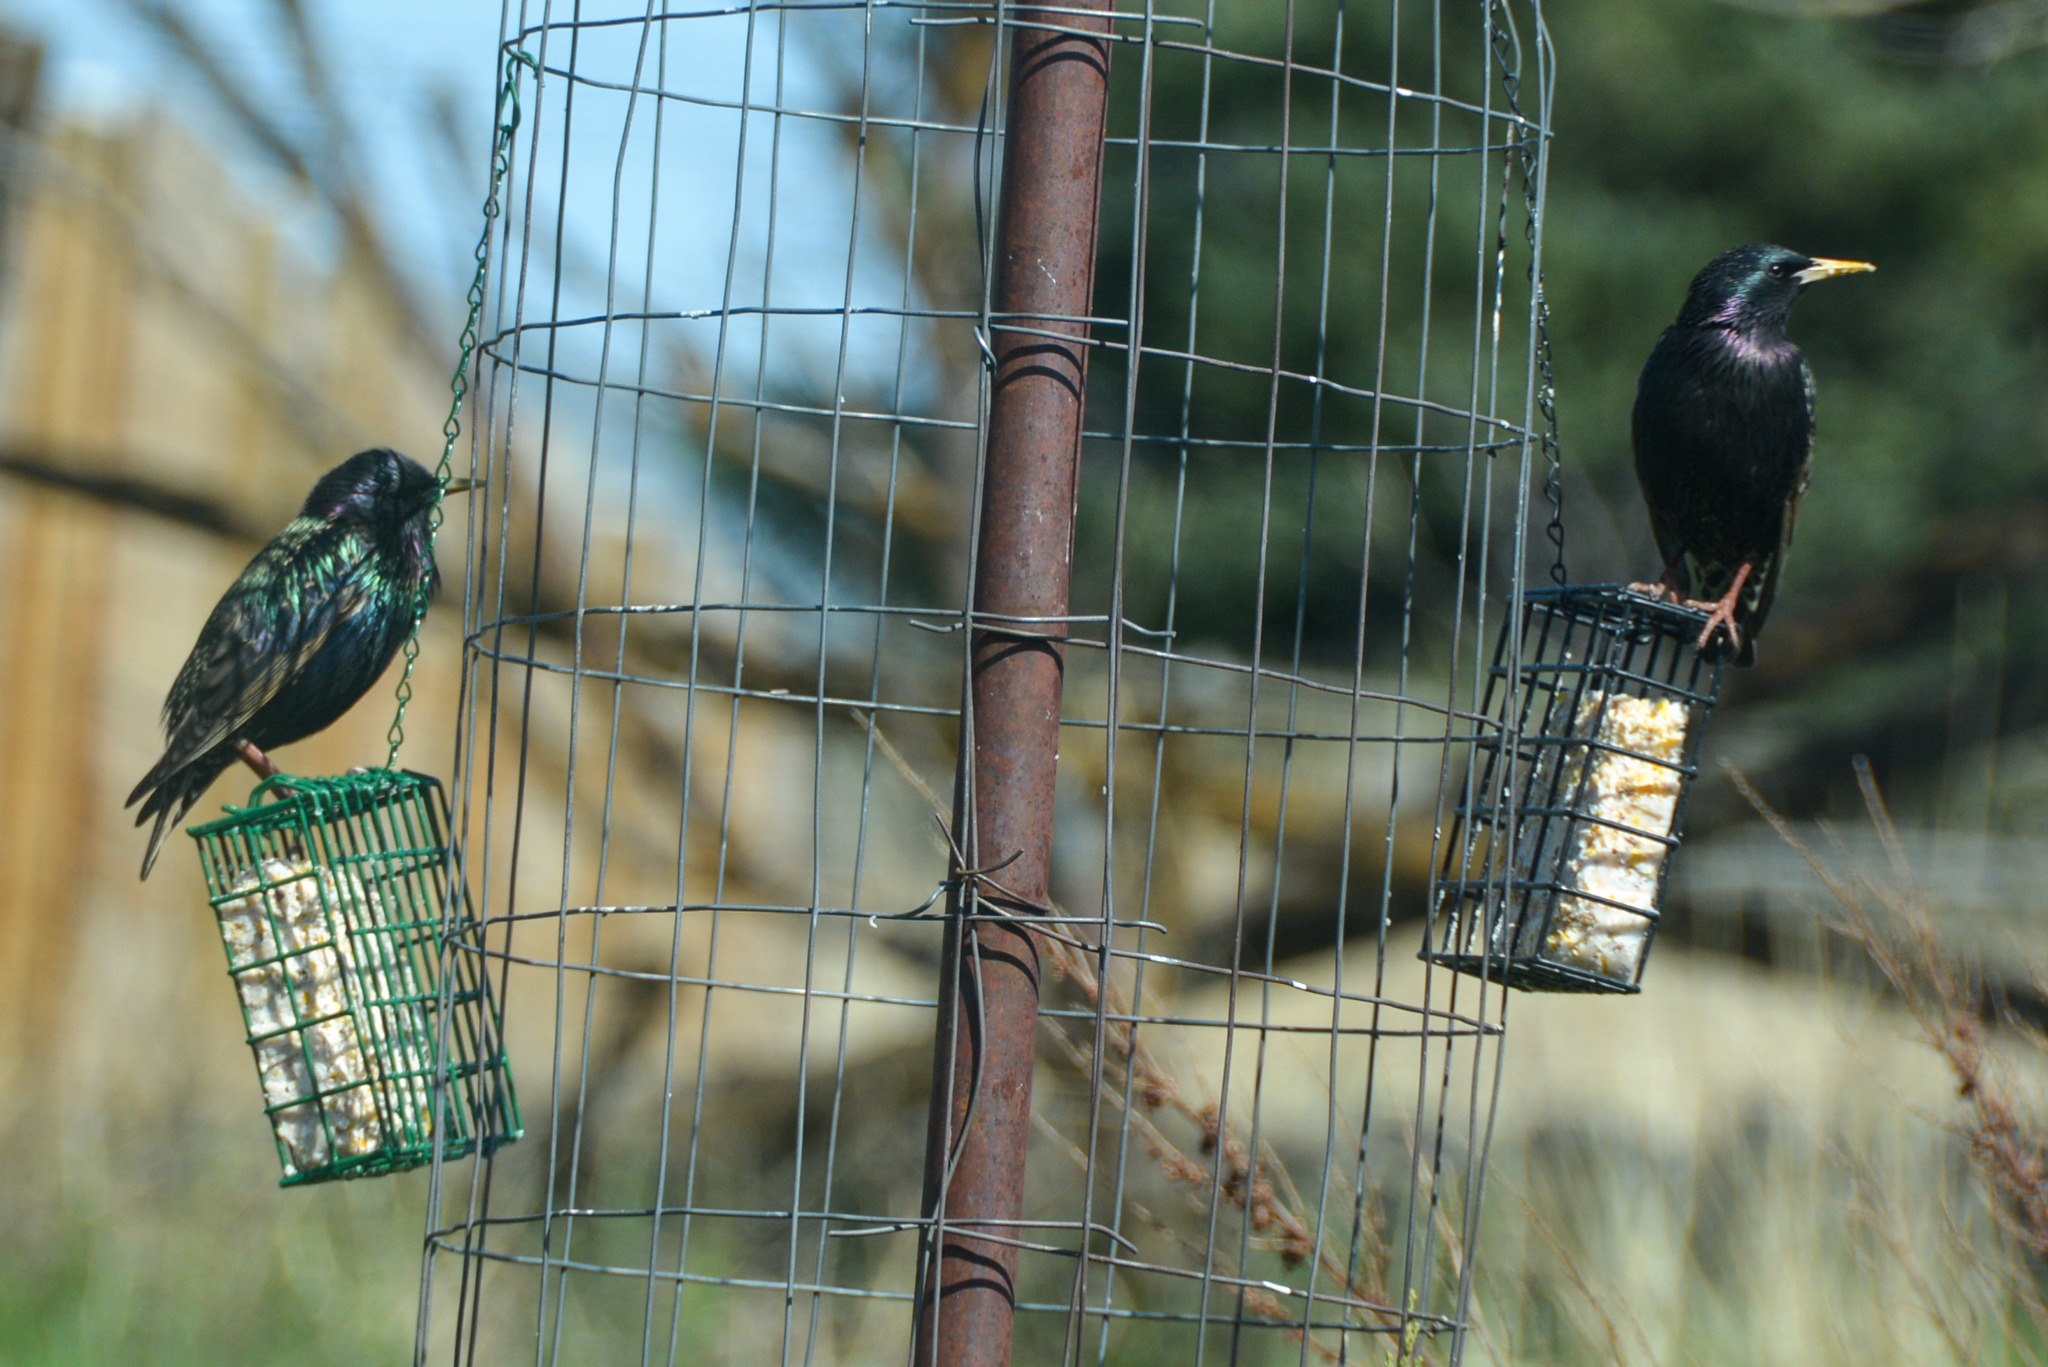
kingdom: Animalia
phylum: Chordata
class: Aves
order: Passeriformes
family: Sturnidae
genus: Sturnus
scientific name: Sturnus vulgaris
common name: Common starling
